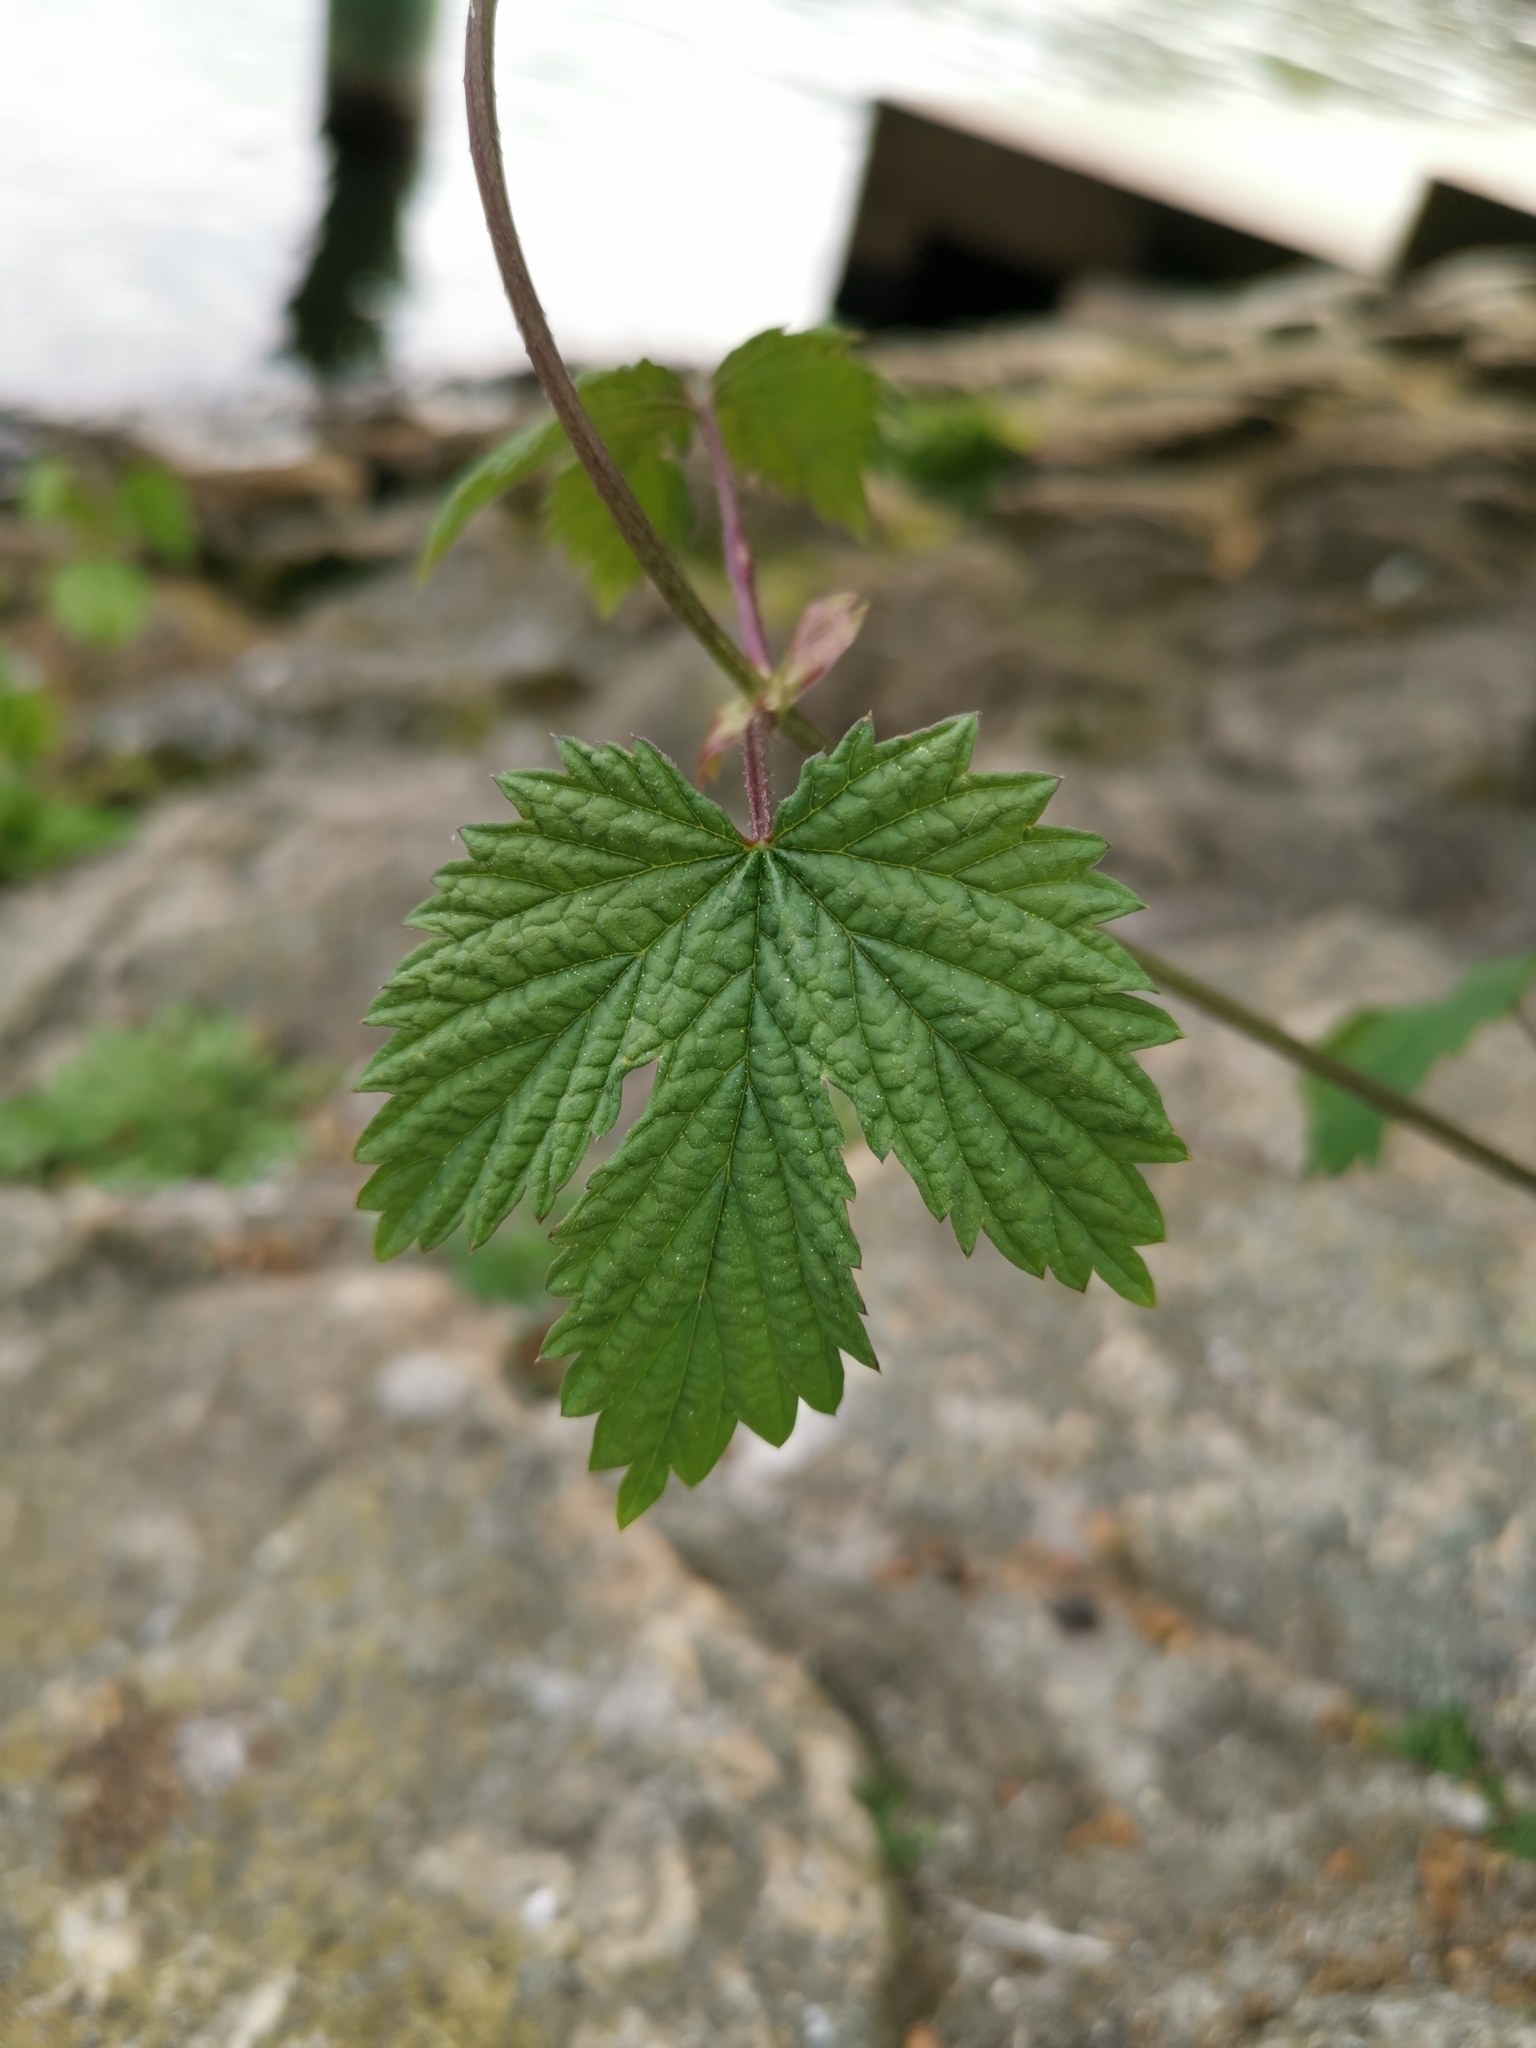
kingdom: Plantae
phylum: Tracheophyta
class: Magnoliopsida
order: Rosales
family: Cannabaceae
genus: Humulus
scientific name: Humulus lupulus
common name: Hop
